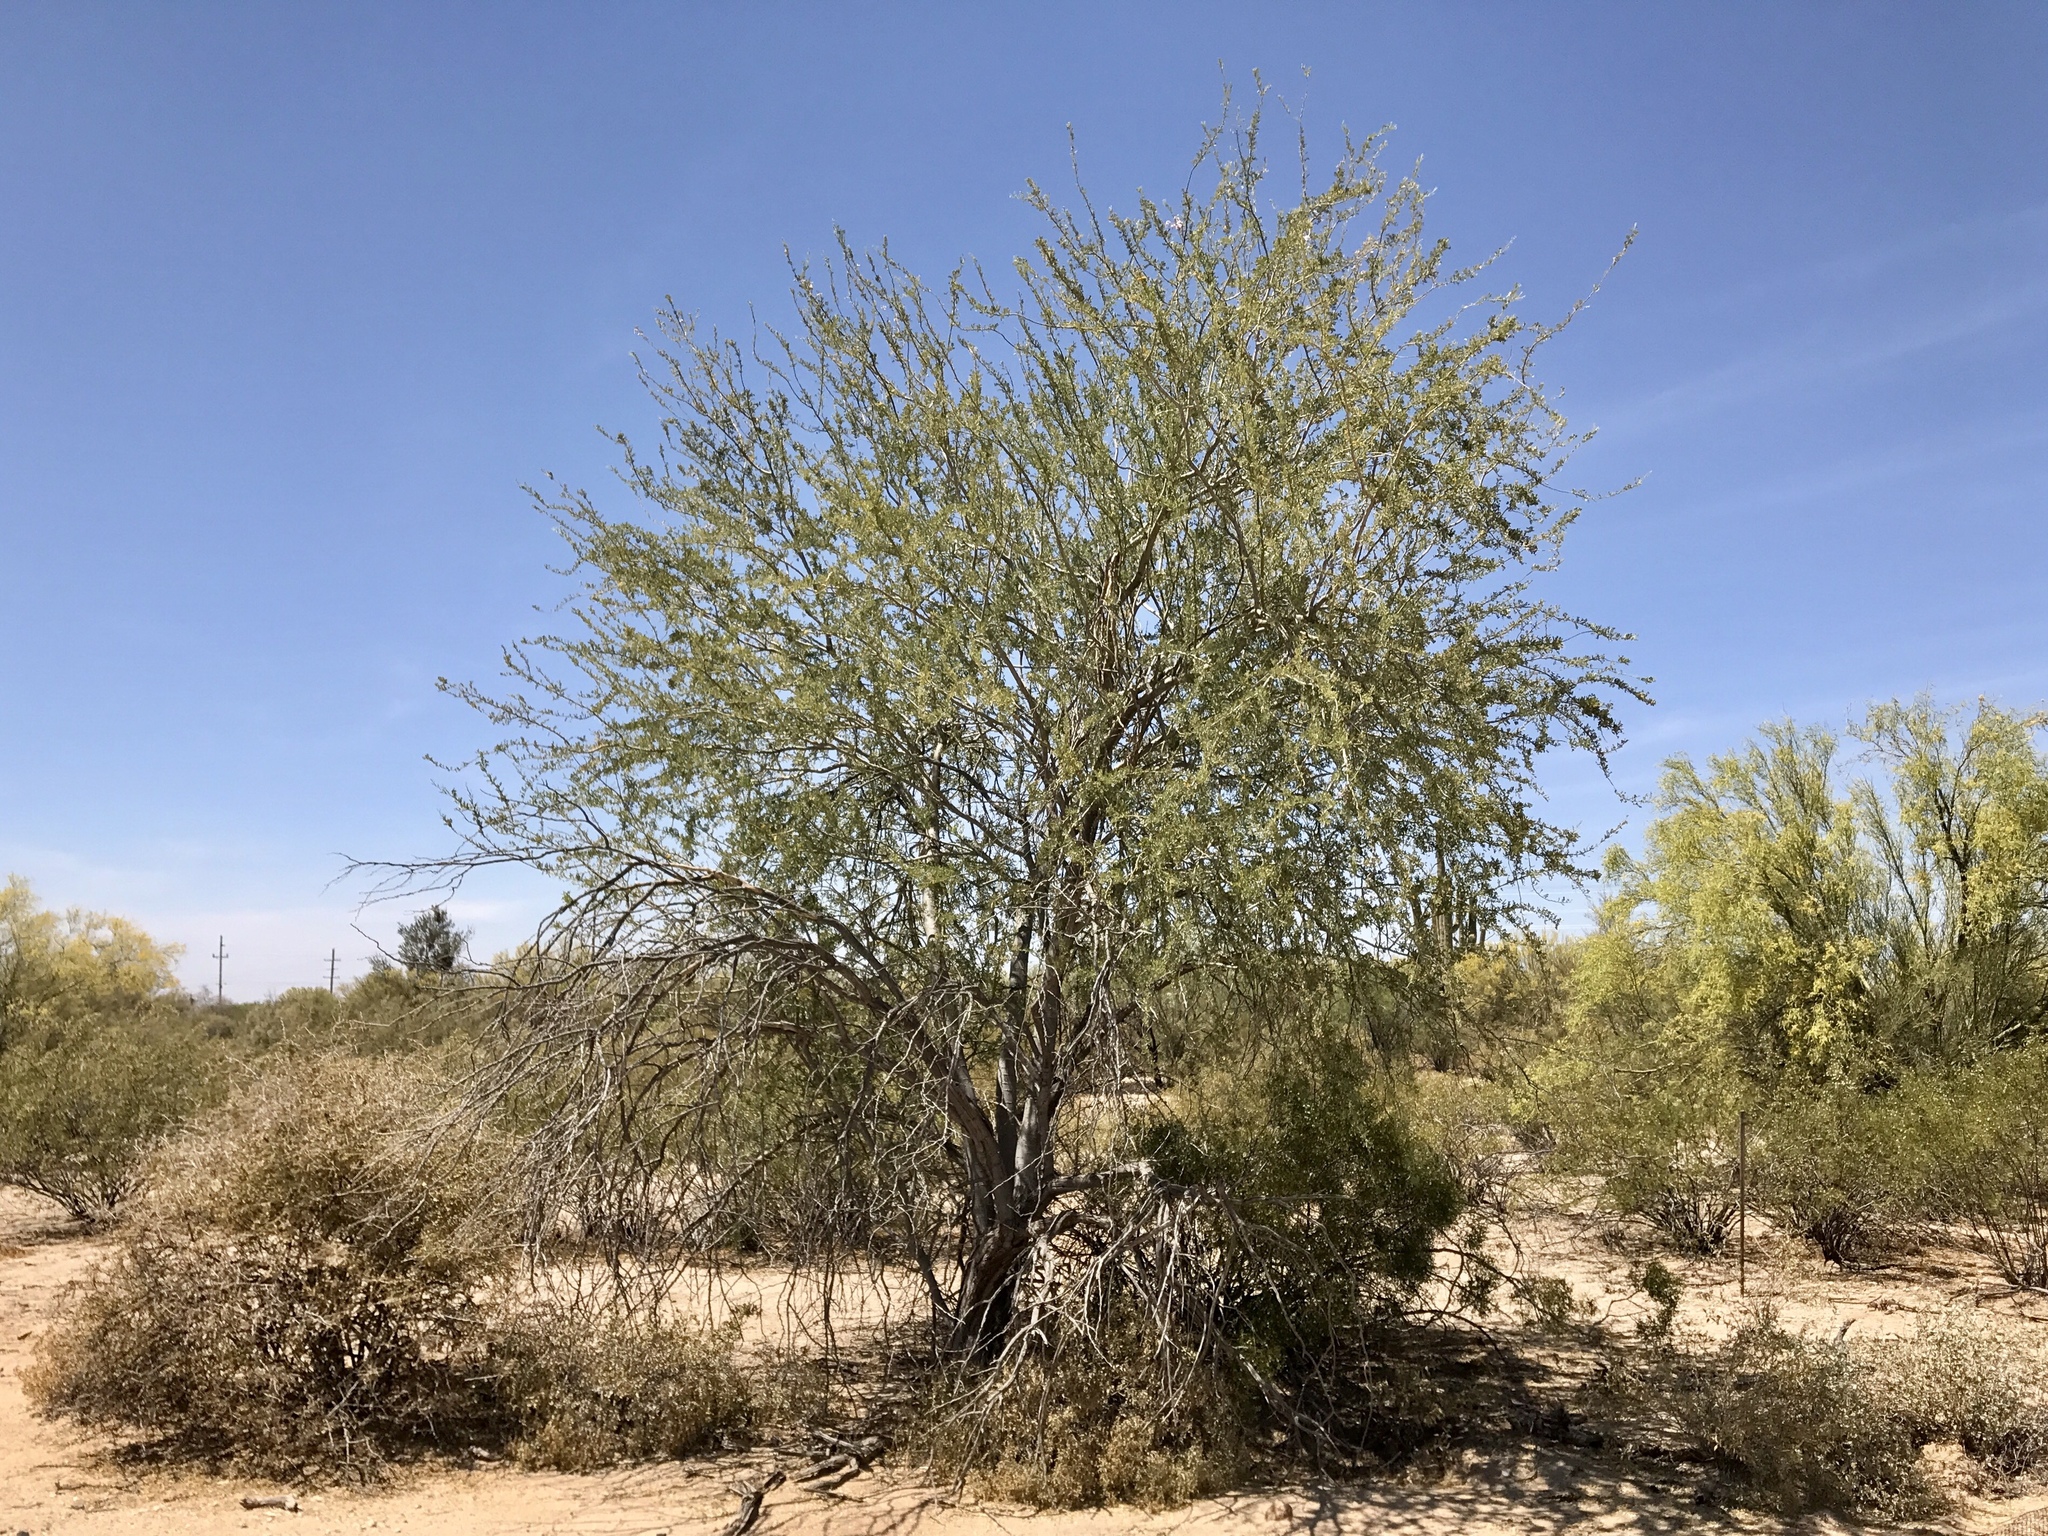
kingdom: Plantae
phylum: Tracheophyta
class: Magnoliopsida
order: Fabales
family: Fabaceae
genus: Olneya
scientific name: Olneya tesota
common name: Desert ironwood
